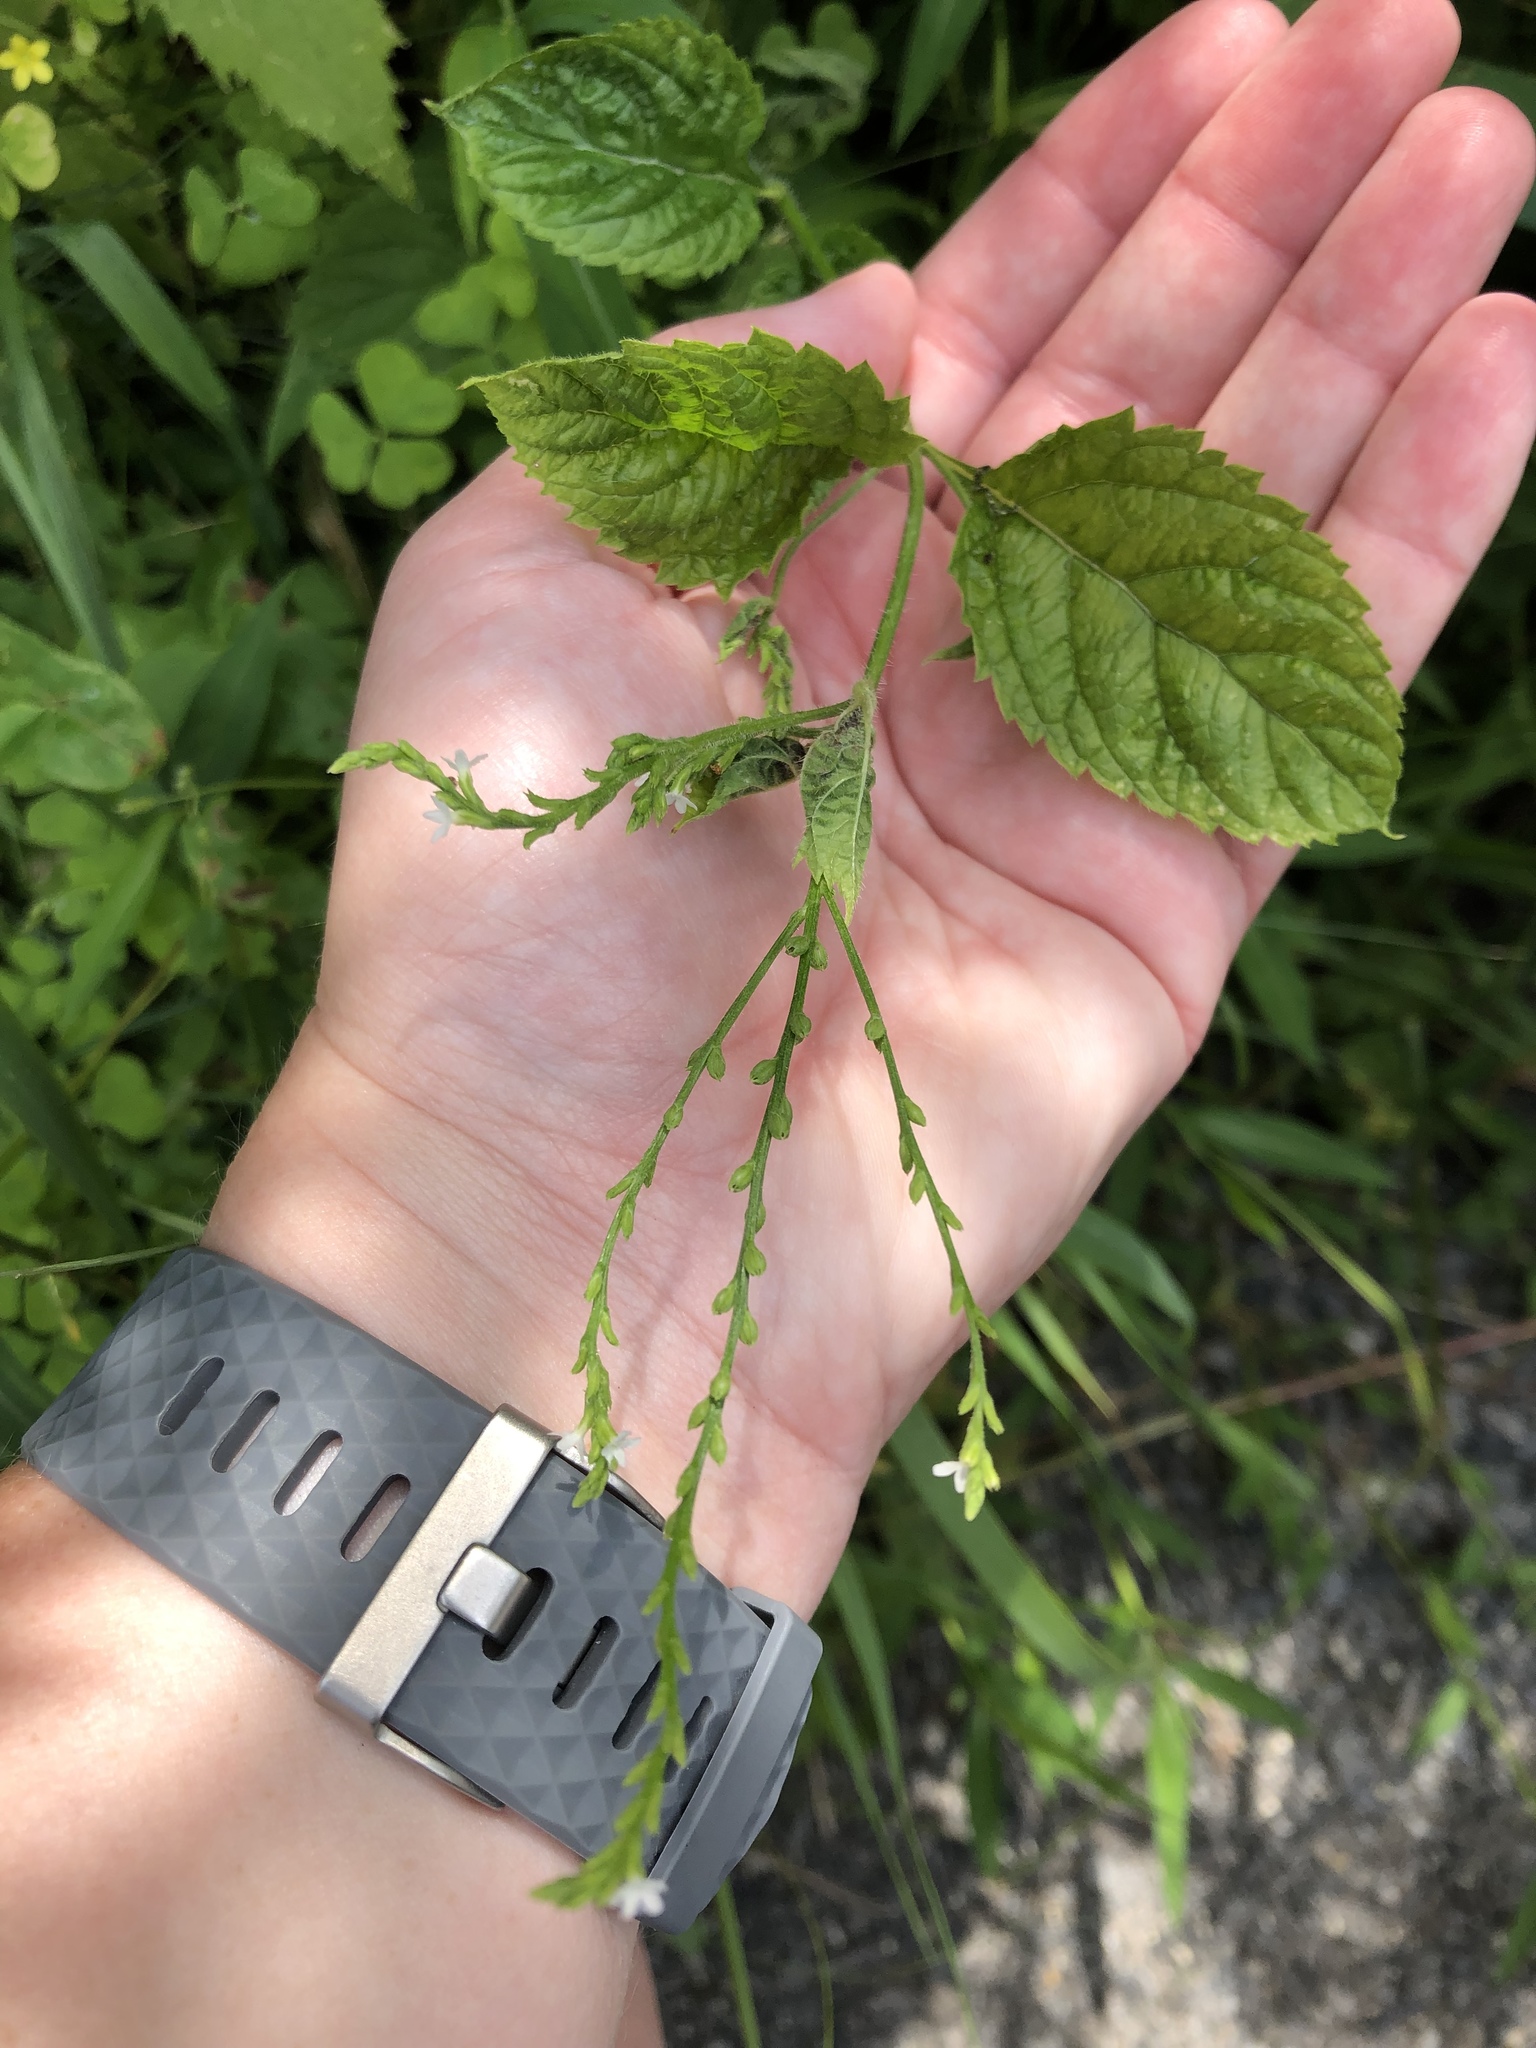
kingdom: Plantae
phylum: Tracheophyta
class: Magnoliopsida
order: Lamiales
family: Verbenaceae
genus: Verbena
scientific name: Verbena urticifolia
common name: Nettle-leaved vervain
